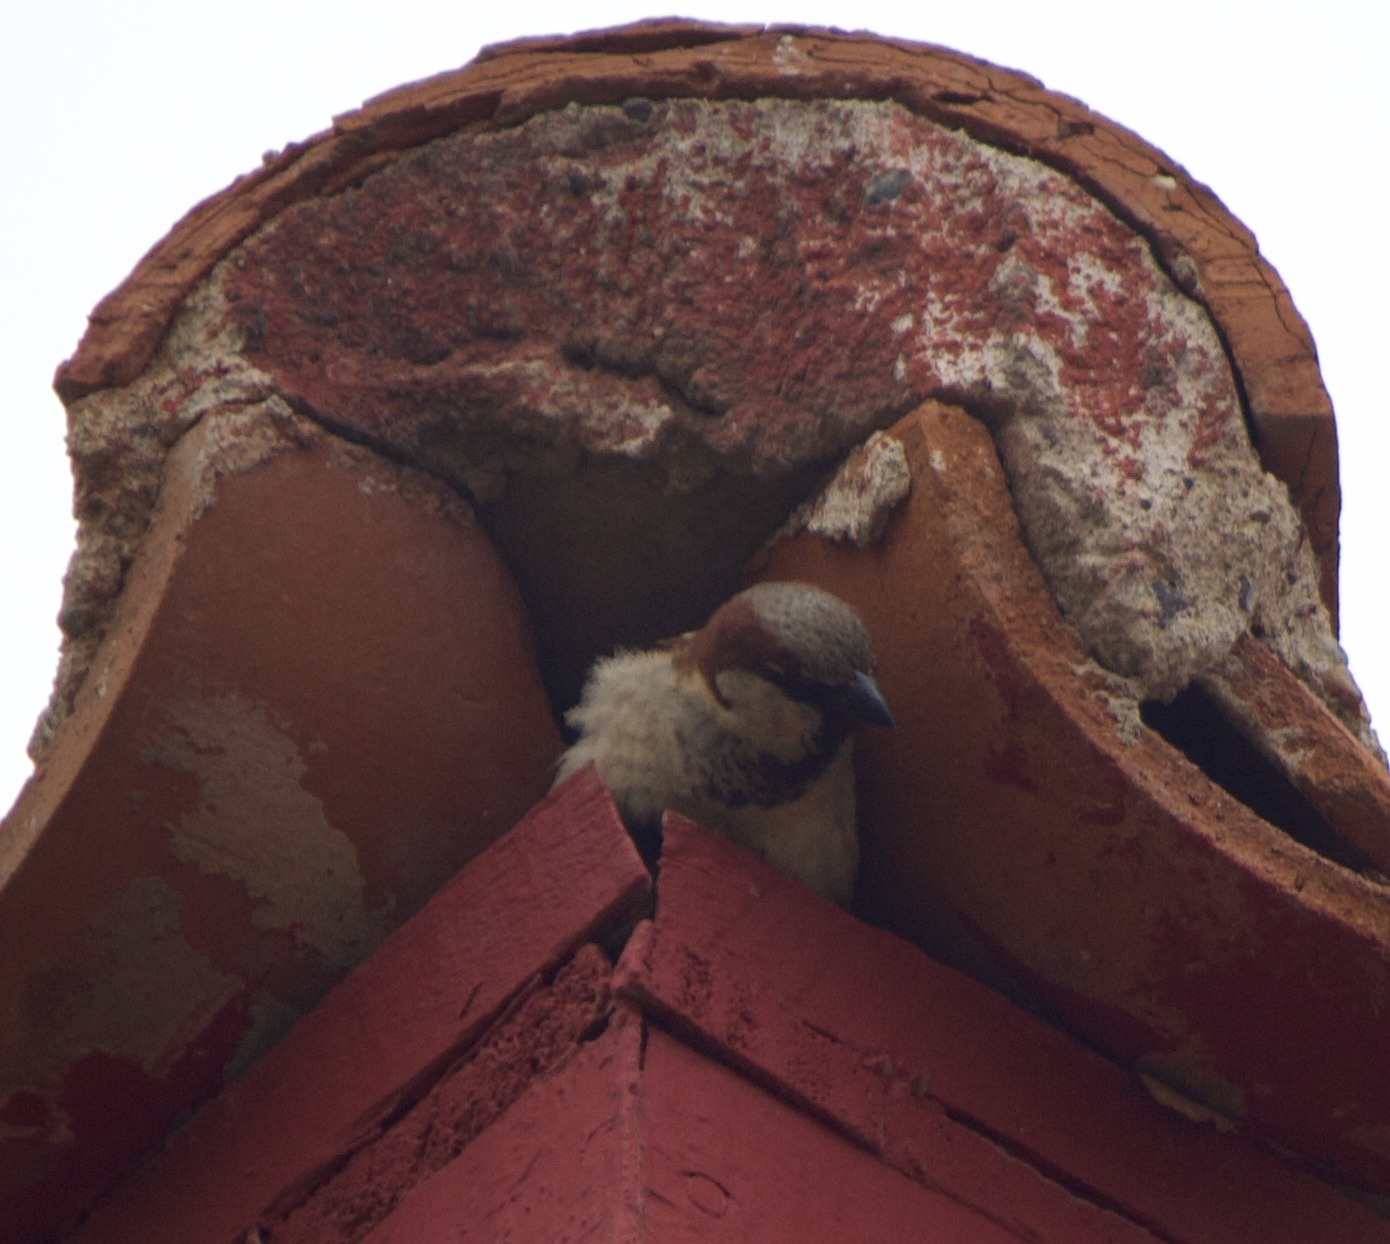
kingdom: Animalia
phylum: Chordata
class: Aves
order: Passeriformes
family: Passeridae
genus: Passer
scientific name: Passer domesticus
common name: House sparrow
